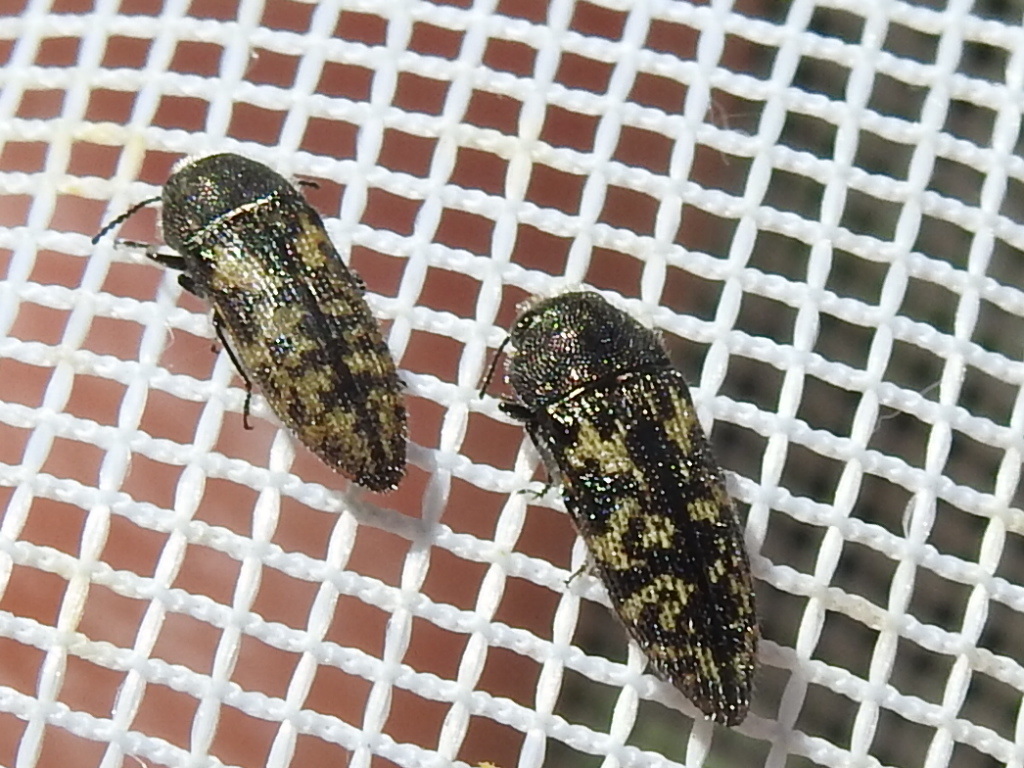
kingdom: Animalia
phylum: Arthropoda
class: Insecta
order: Coleoptera
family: Buprestidae
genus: Acmaeodera
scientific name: Acmaeodera neglecta
